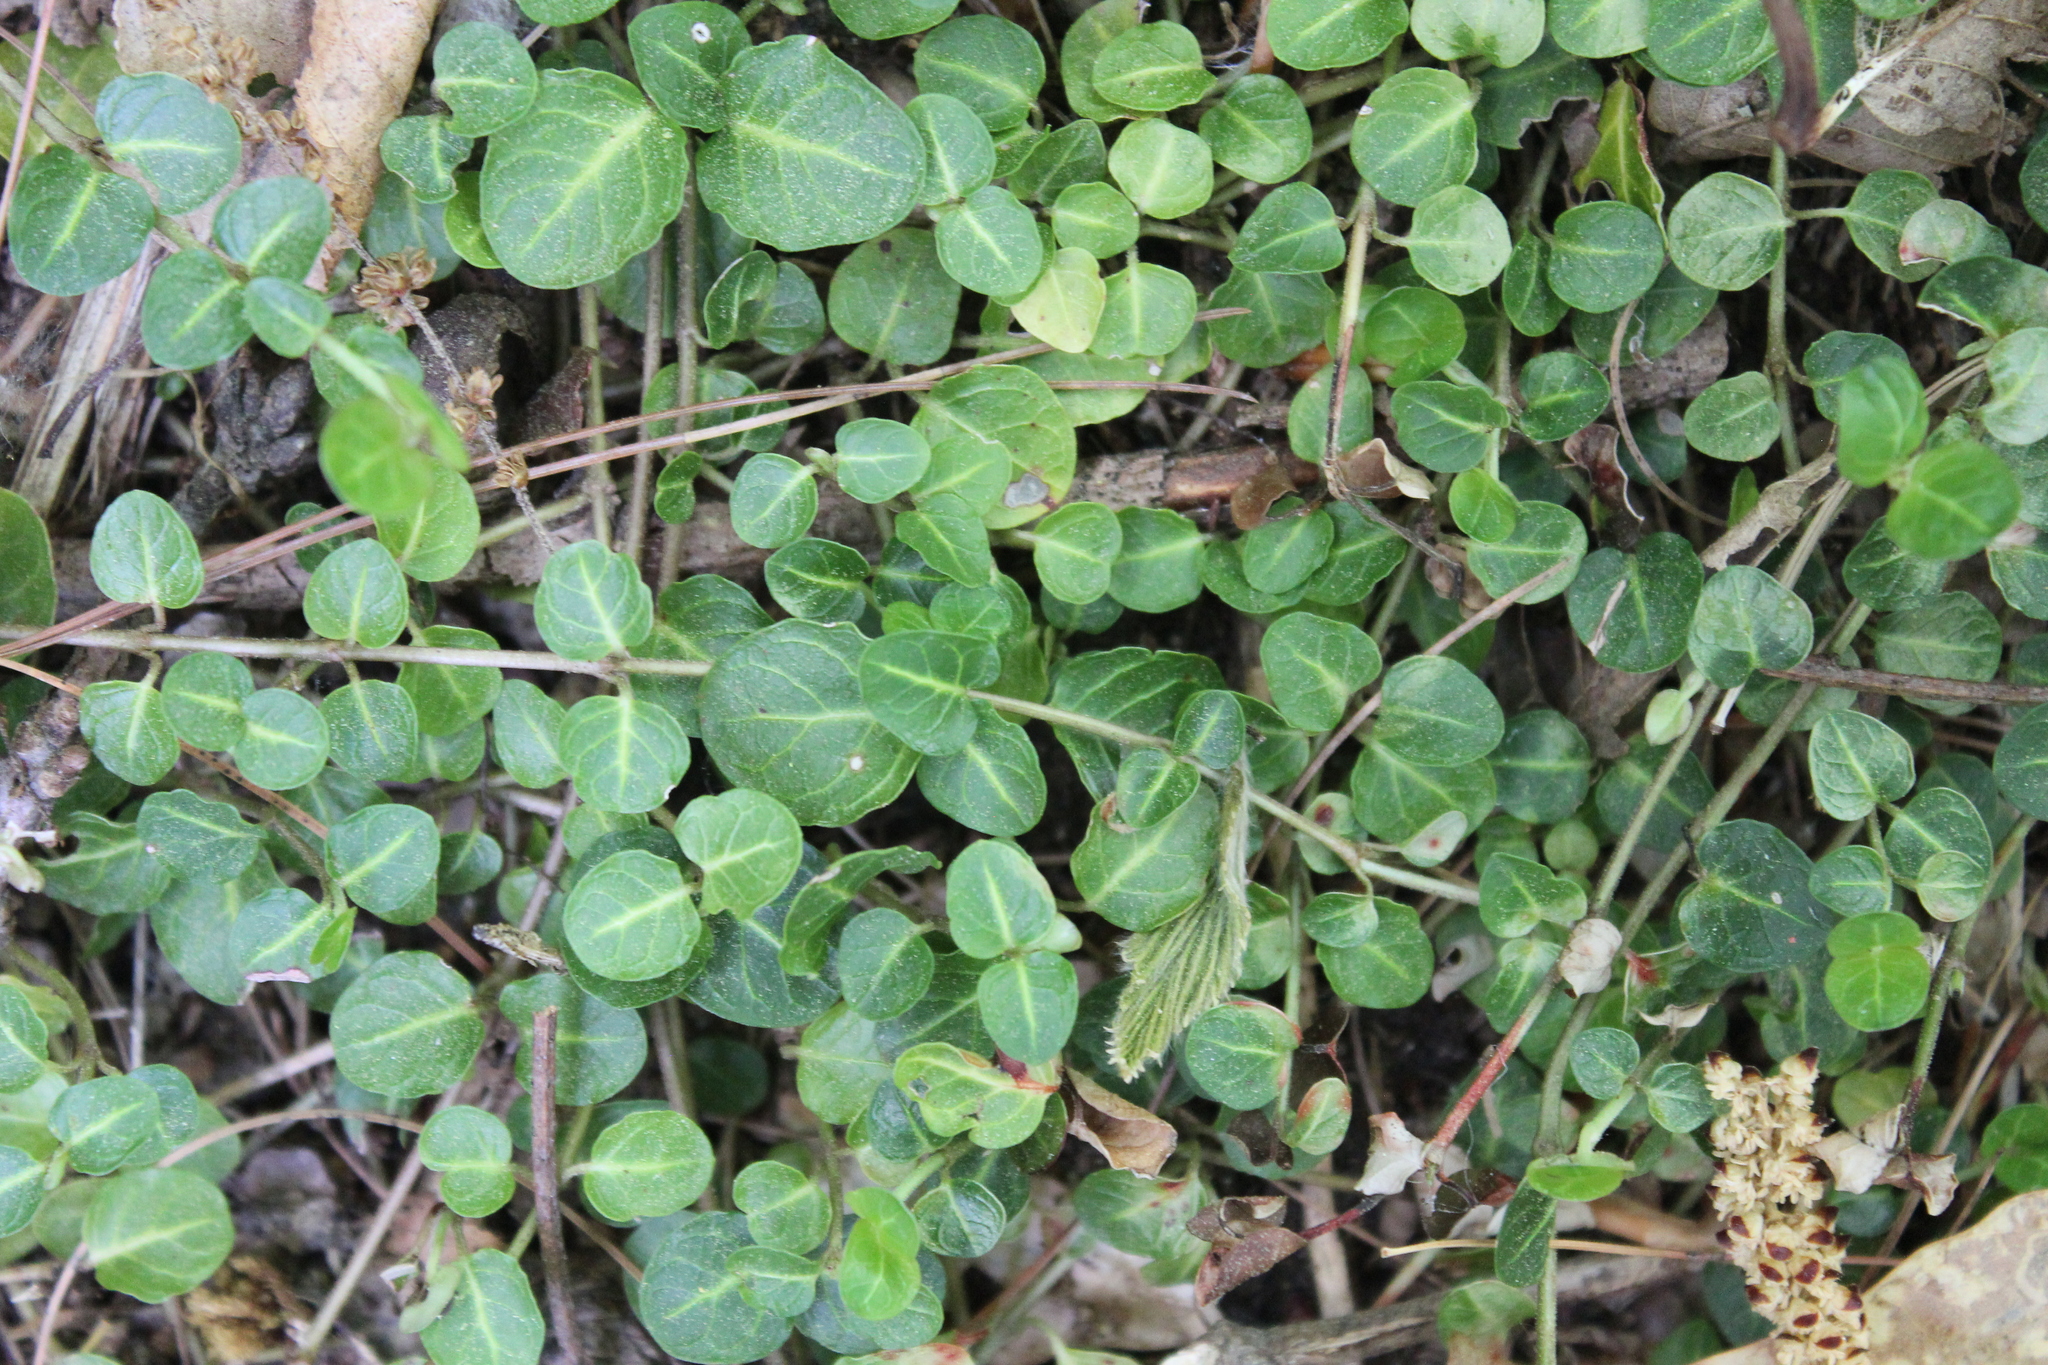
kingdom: Plantae
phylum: Tracheophyta
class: Magnoliopsida
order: Gentianales
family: Rubiaceae
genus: Mitchella
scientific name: Mitchella repens
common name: Partridge-berry
